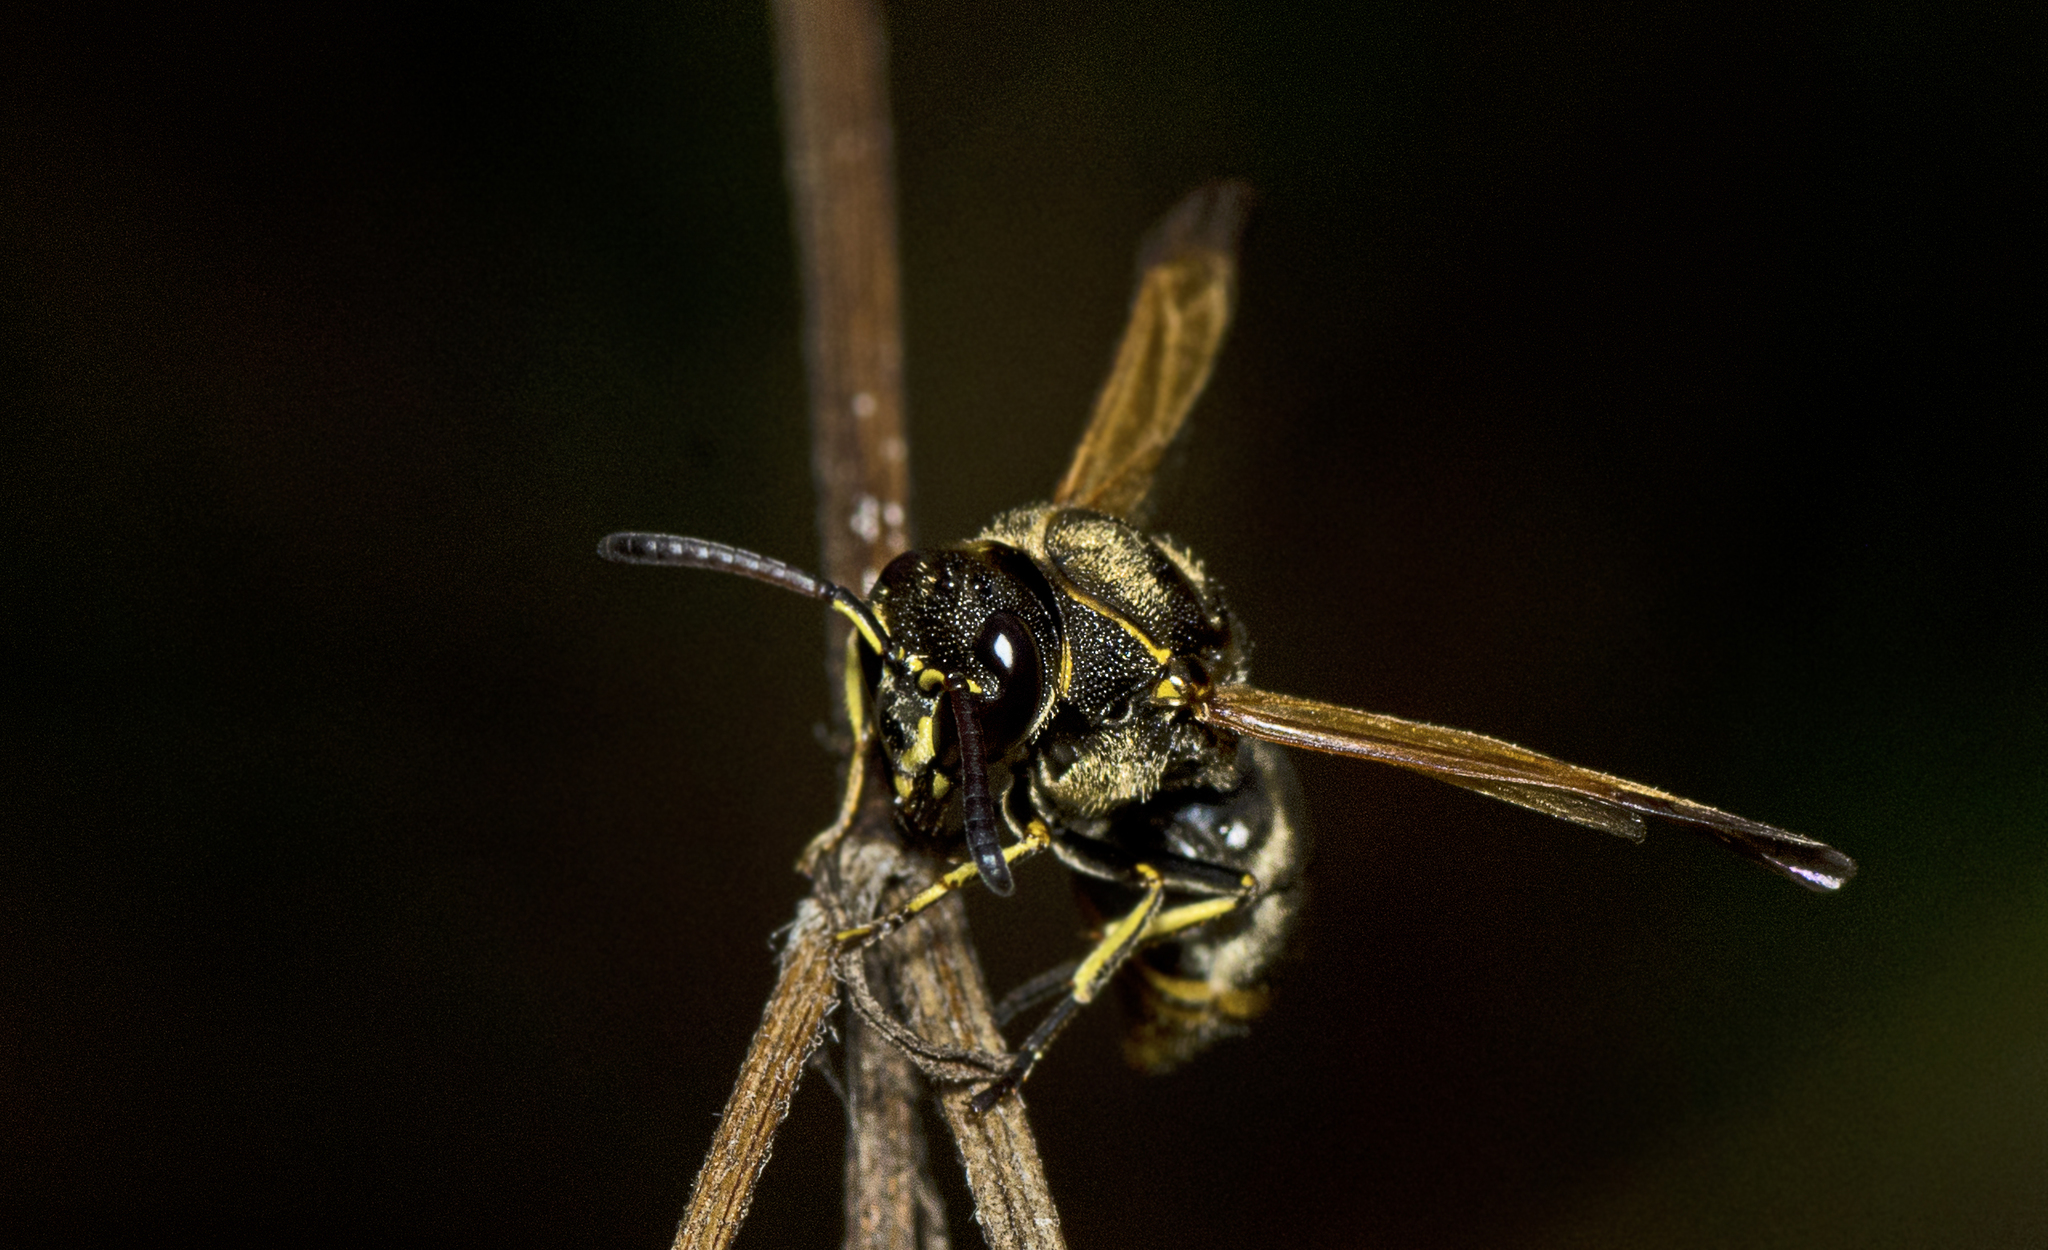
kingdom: Animalia
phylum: Arthropoda
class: Insecta
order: Hymenoptera
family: Eumenidae
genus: Pachodynerus
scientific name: Pachodynerus nasidens
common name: Key hole wasp
